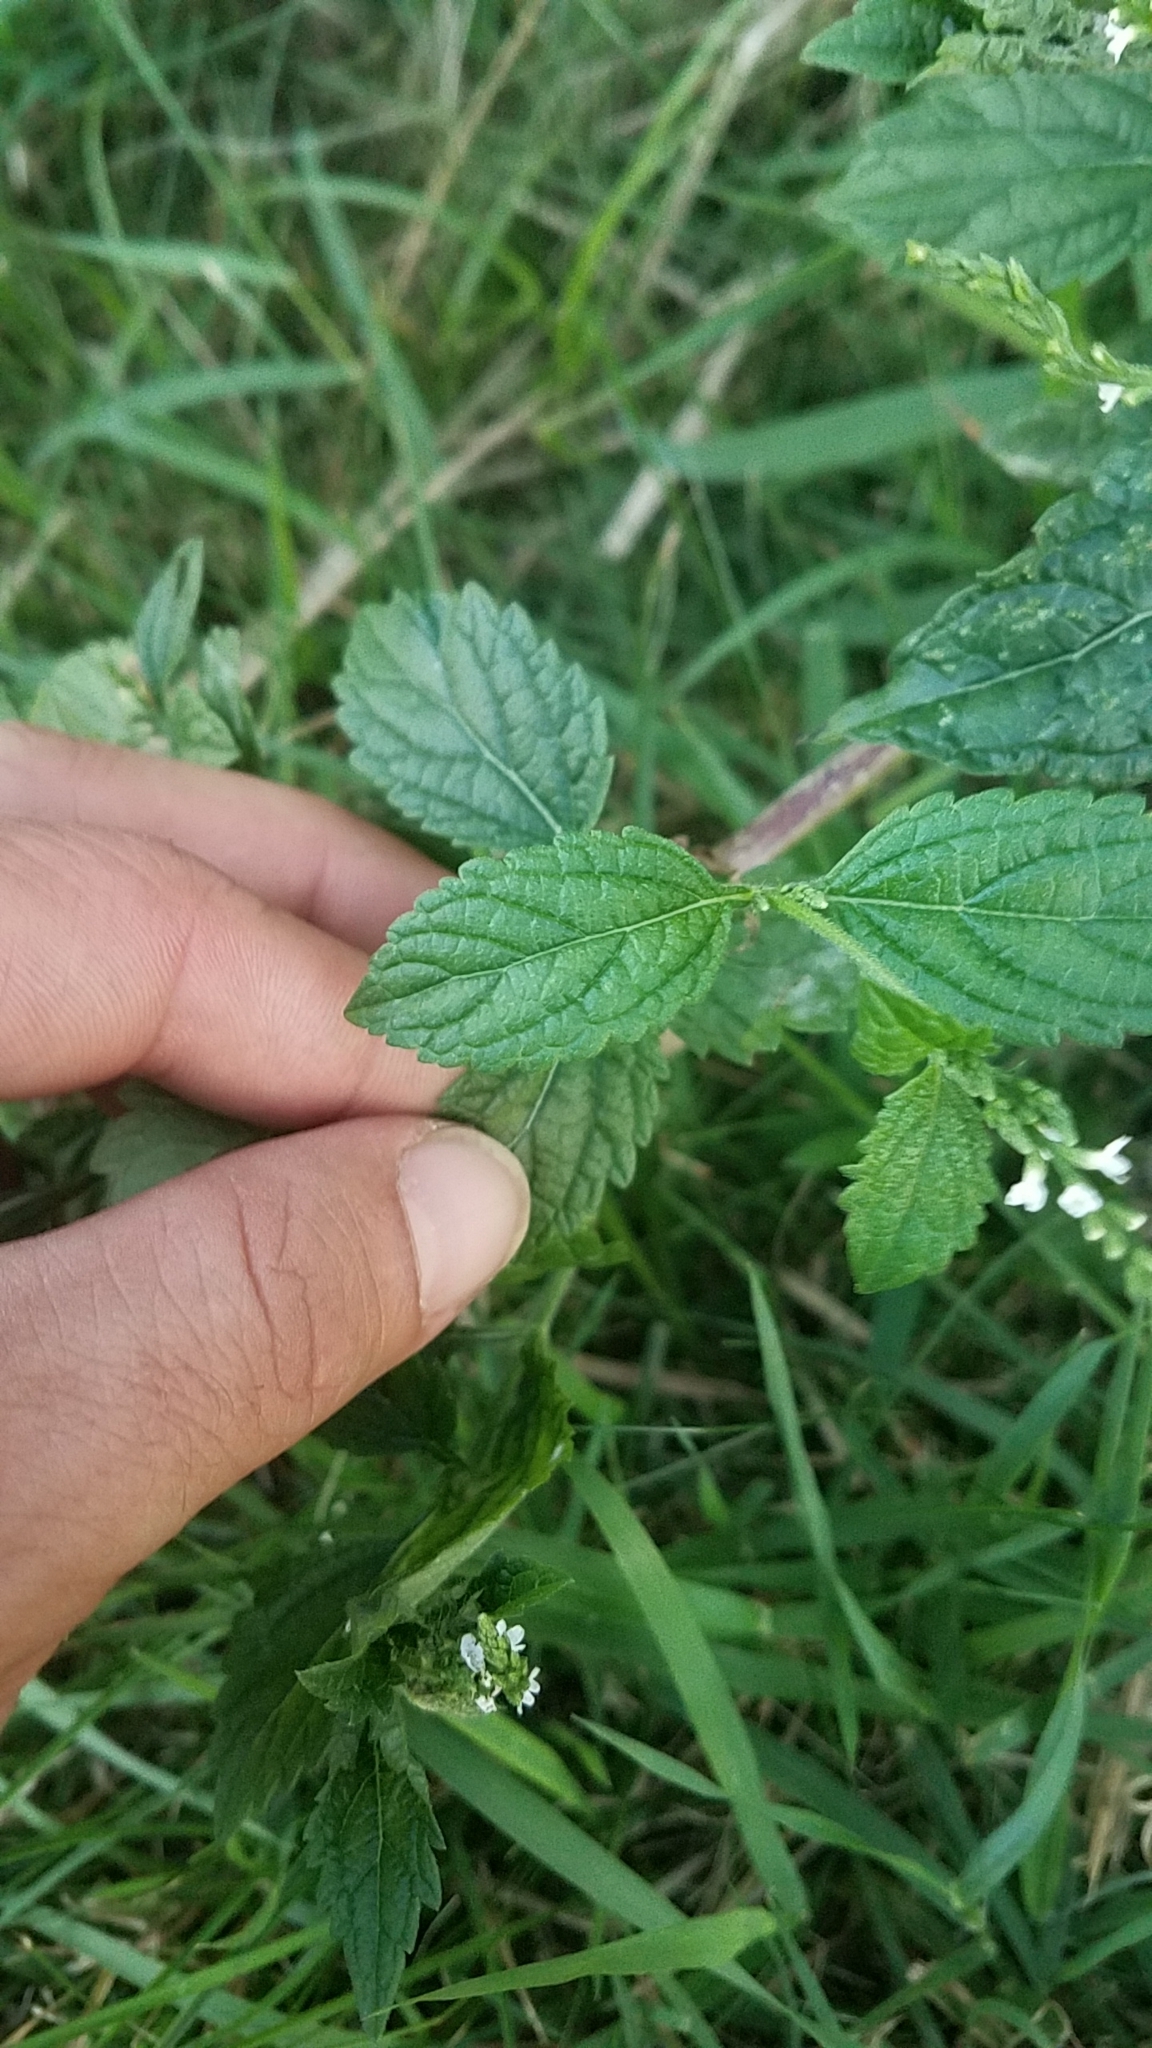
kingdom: Plantae
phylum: Tracheophyta
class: Magnoliopsida
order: Lamiales
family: Verbenaceae
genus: Verbena
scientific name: Verbena urticifolia
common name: Nettle-leaved vervain
